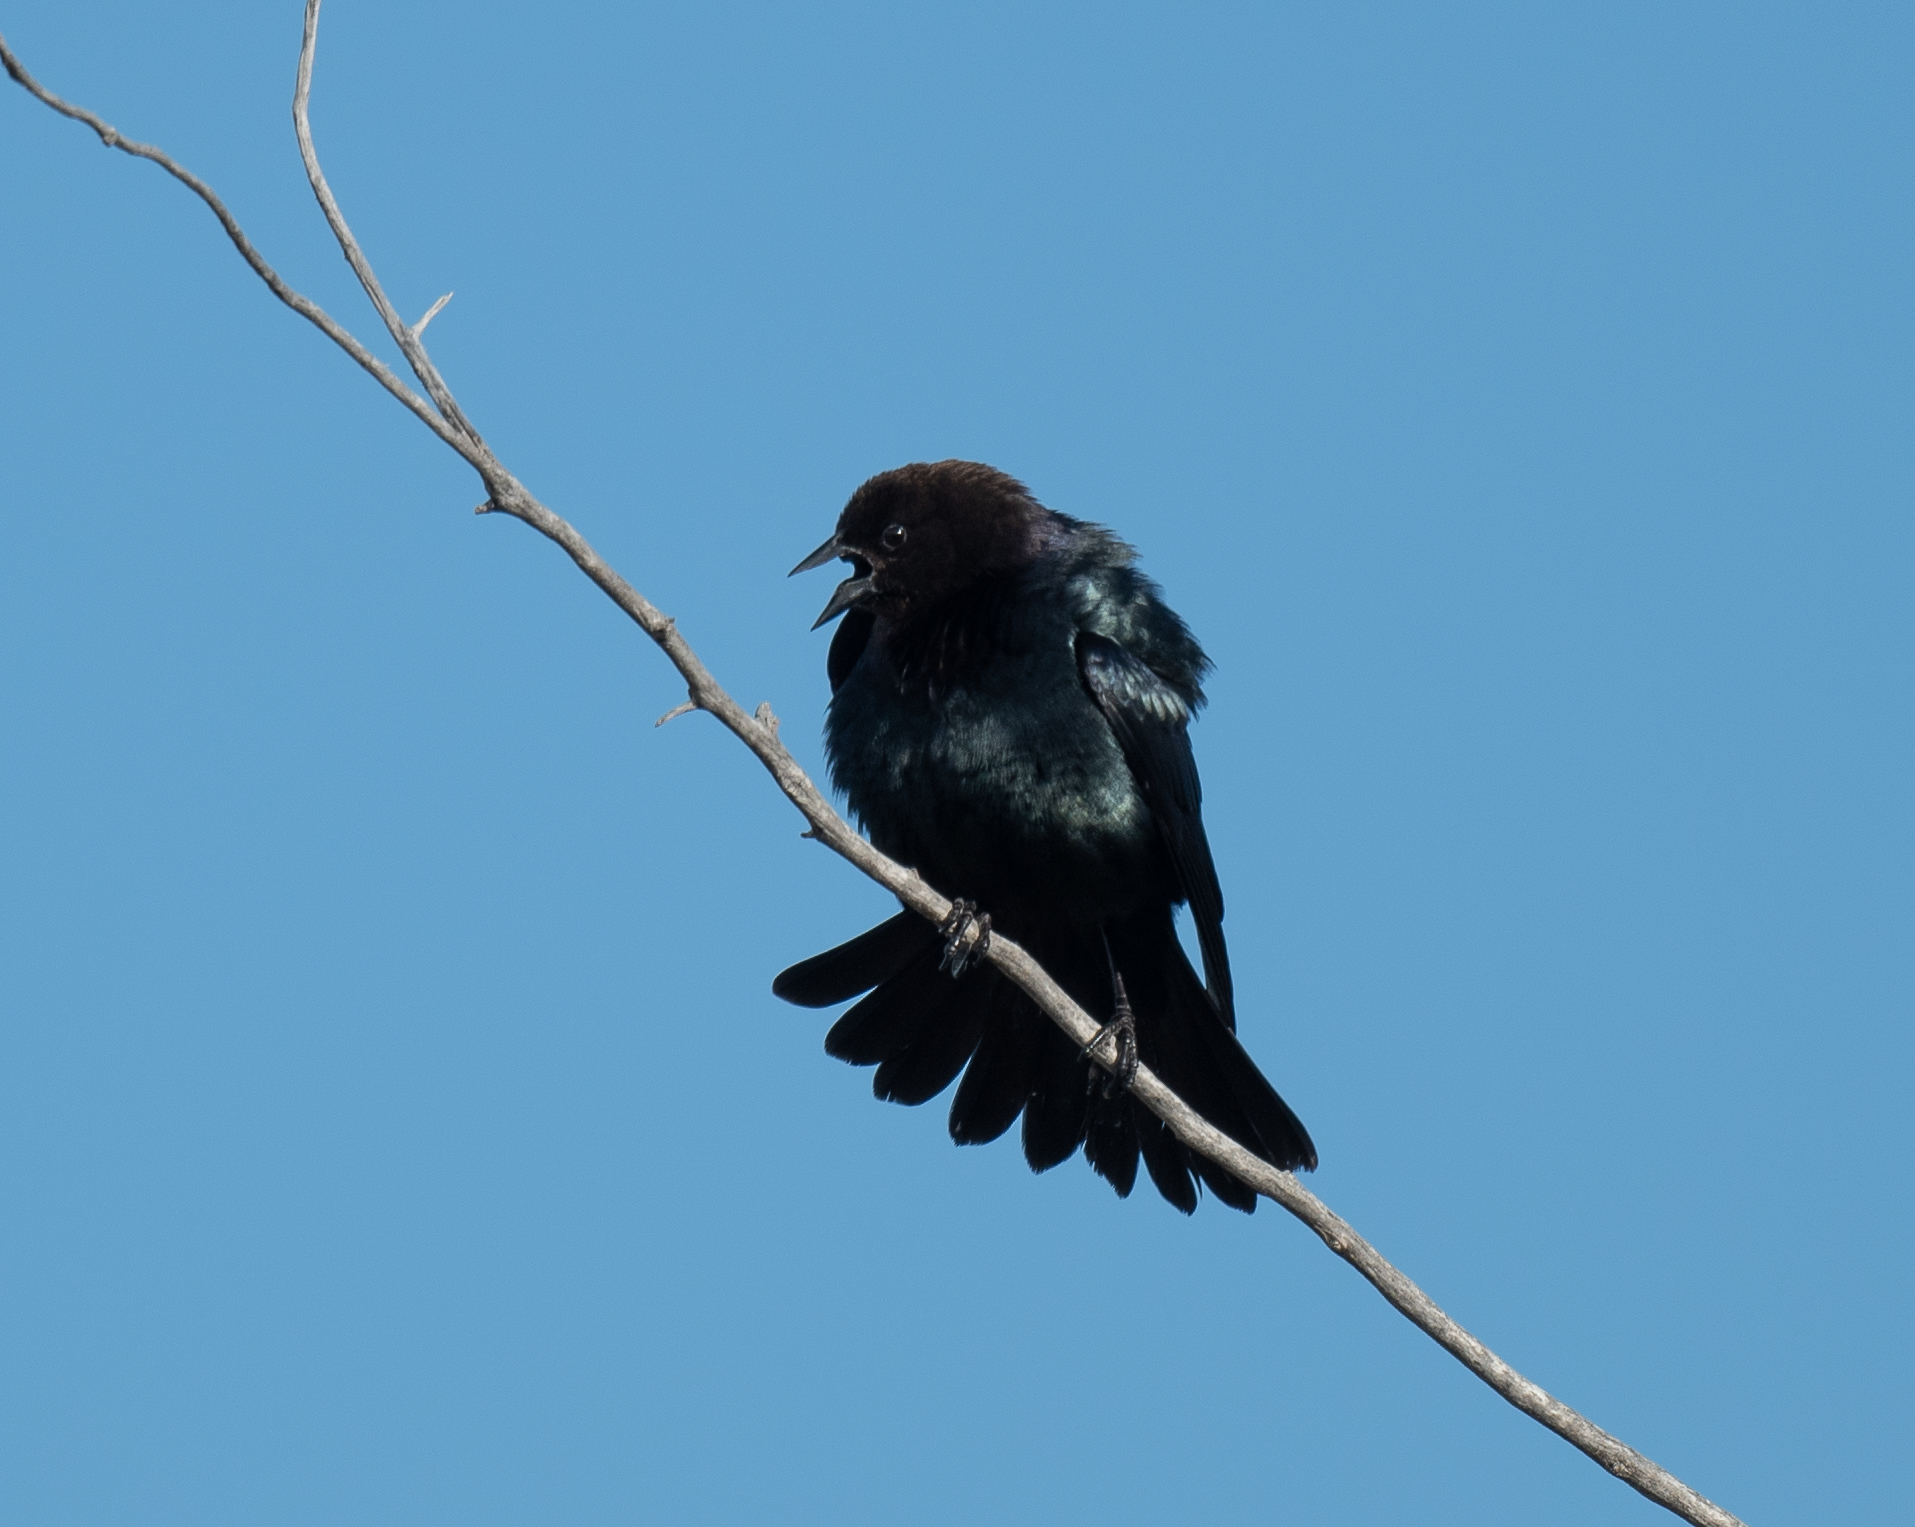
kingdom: Animalia
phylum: Chordata
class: Aves
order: Passeriformes
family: Icteridae
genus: Molothrus
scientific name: Molothrus ater
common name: Brown-headed cowbird
